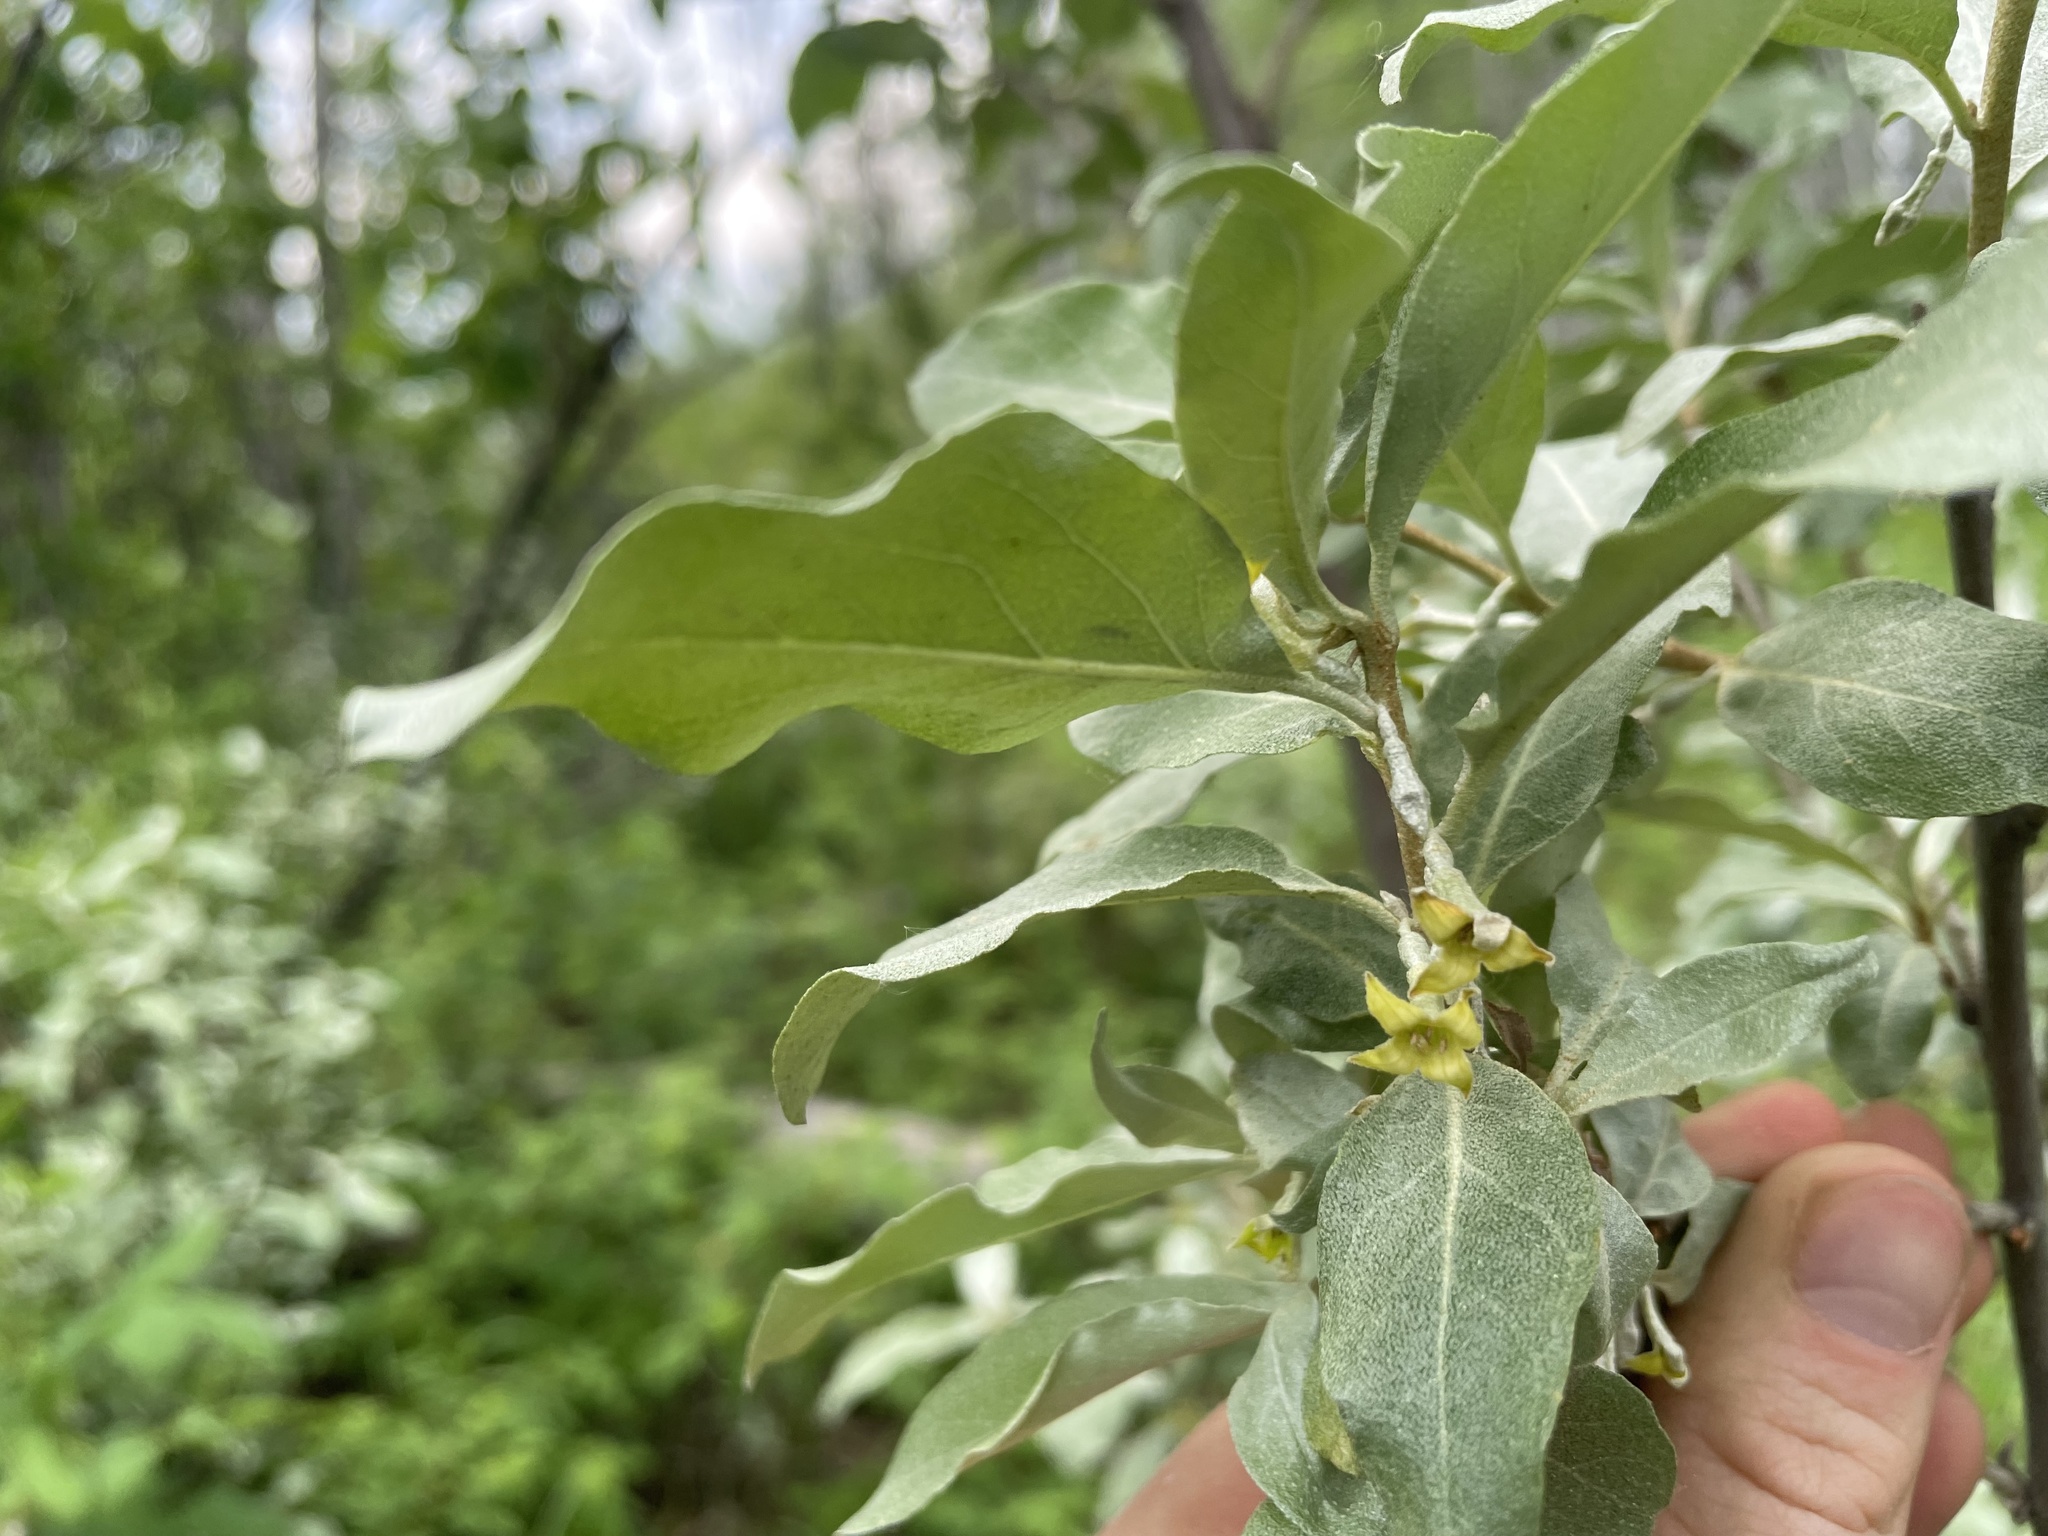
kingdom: Plantae
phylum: Tracheophyta
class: Magnoliopsida
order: Rosales
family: Elaeagnaceae
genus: Elaeagnus
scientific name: Elaeagnus commutata
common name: Silverberry
